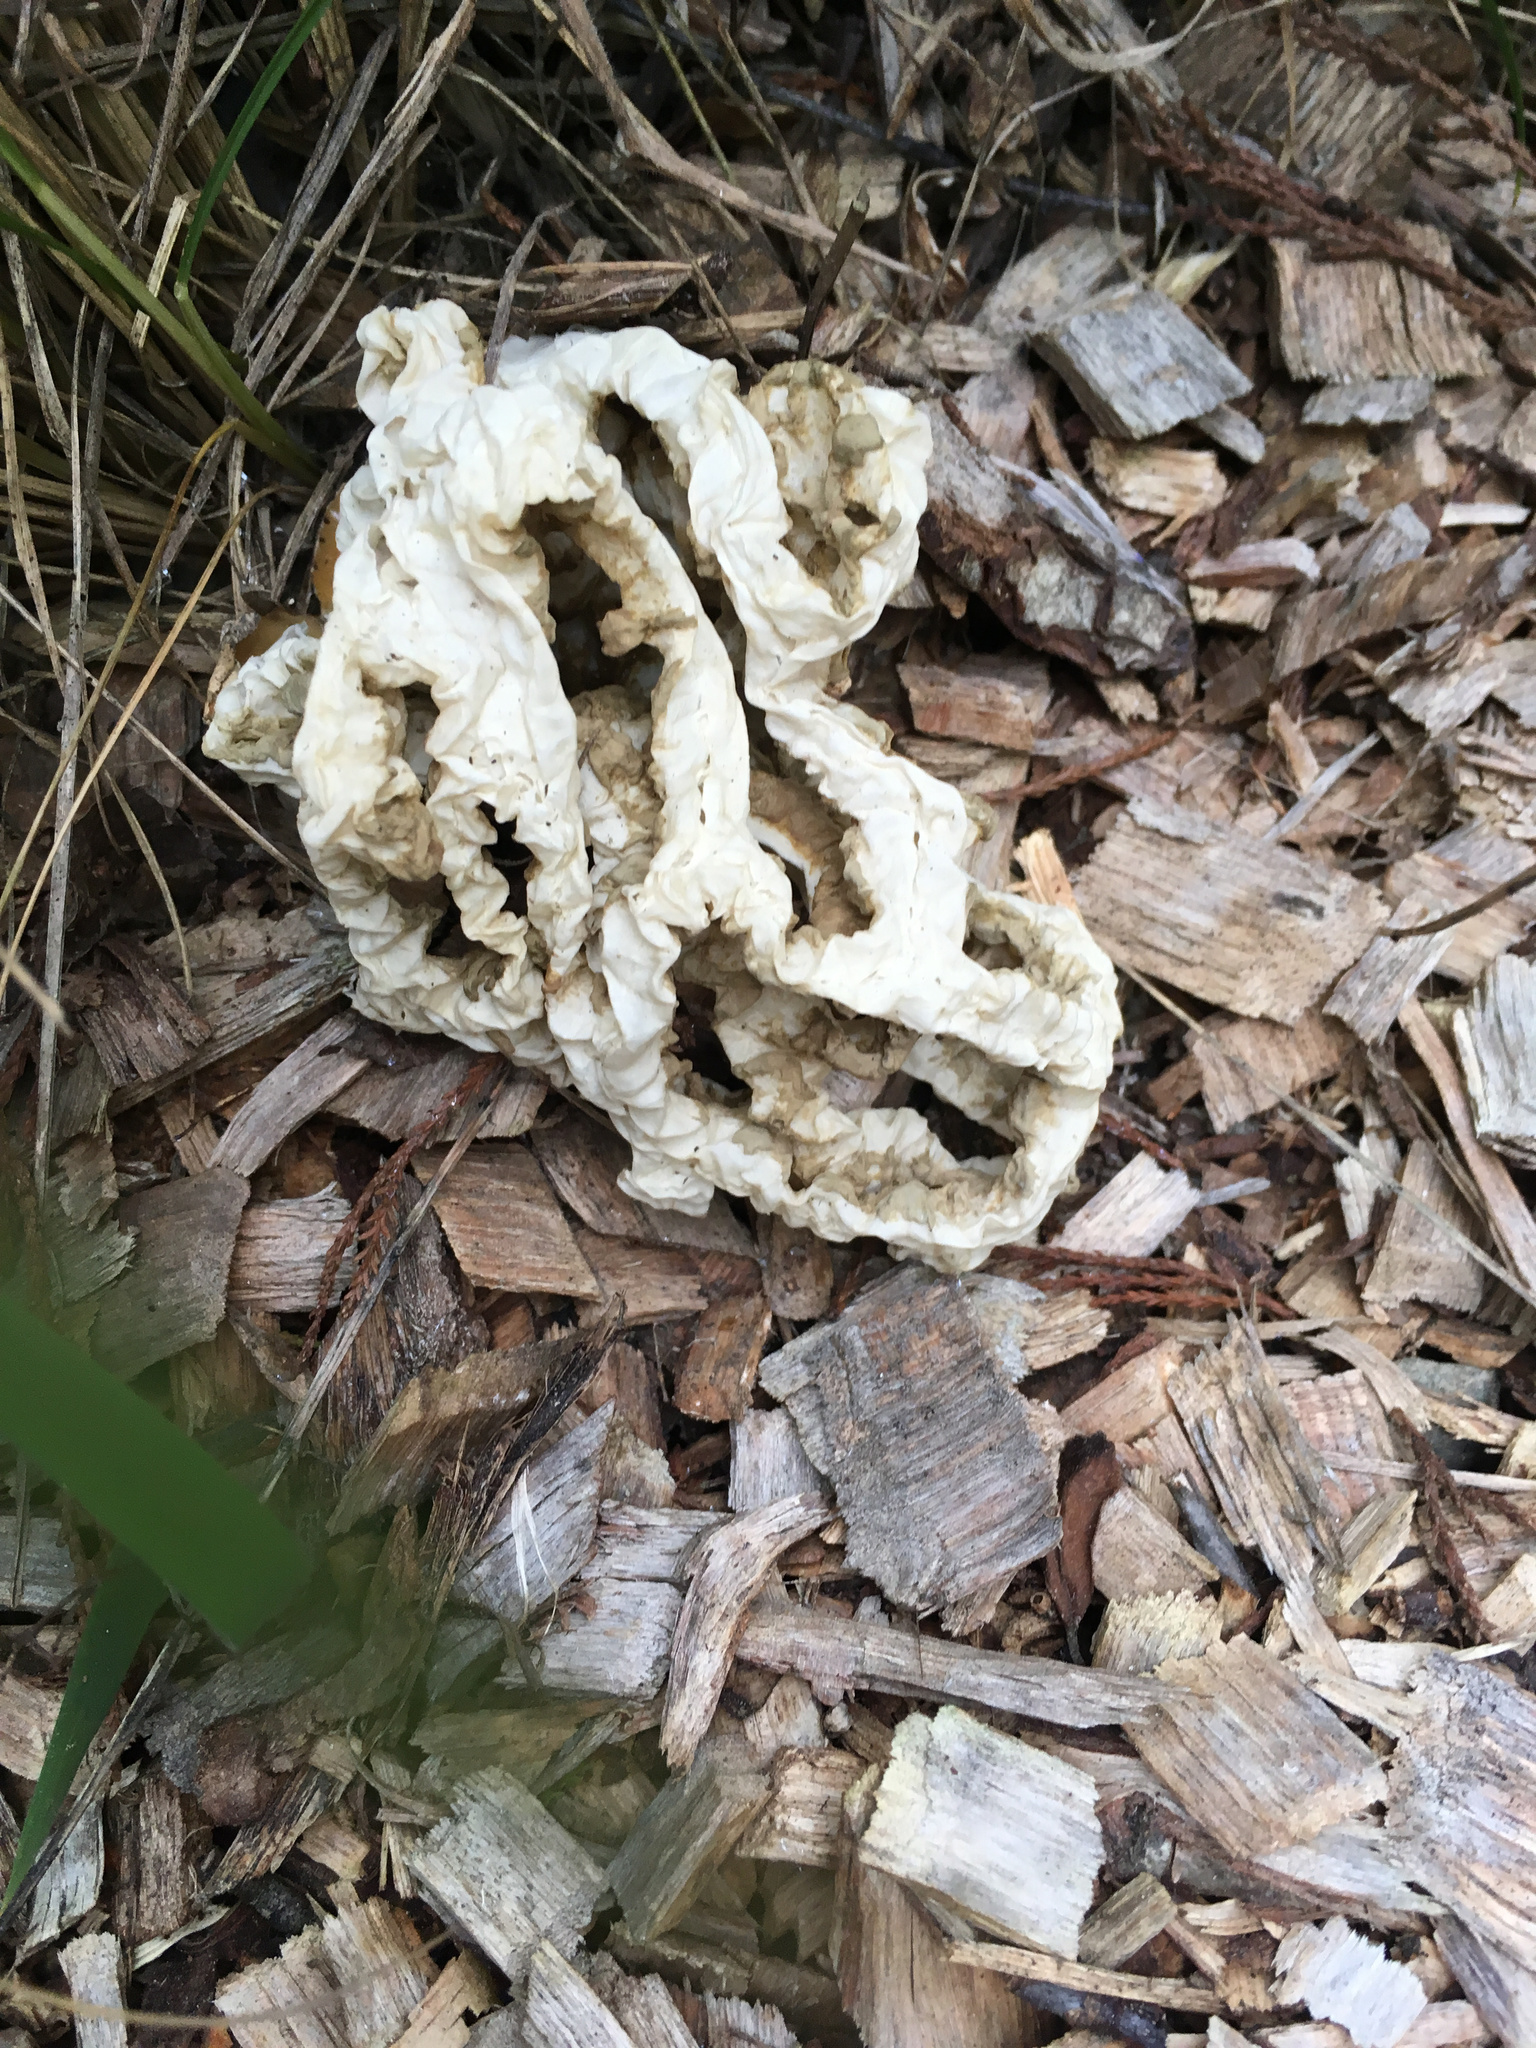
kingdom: Fungi
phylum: Basidiomycota
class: Agaricomycetes
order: Phallales
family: Phallaceae
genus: Ileodictyon
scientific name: Ileodictyon cibarium
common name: Basket fungus
